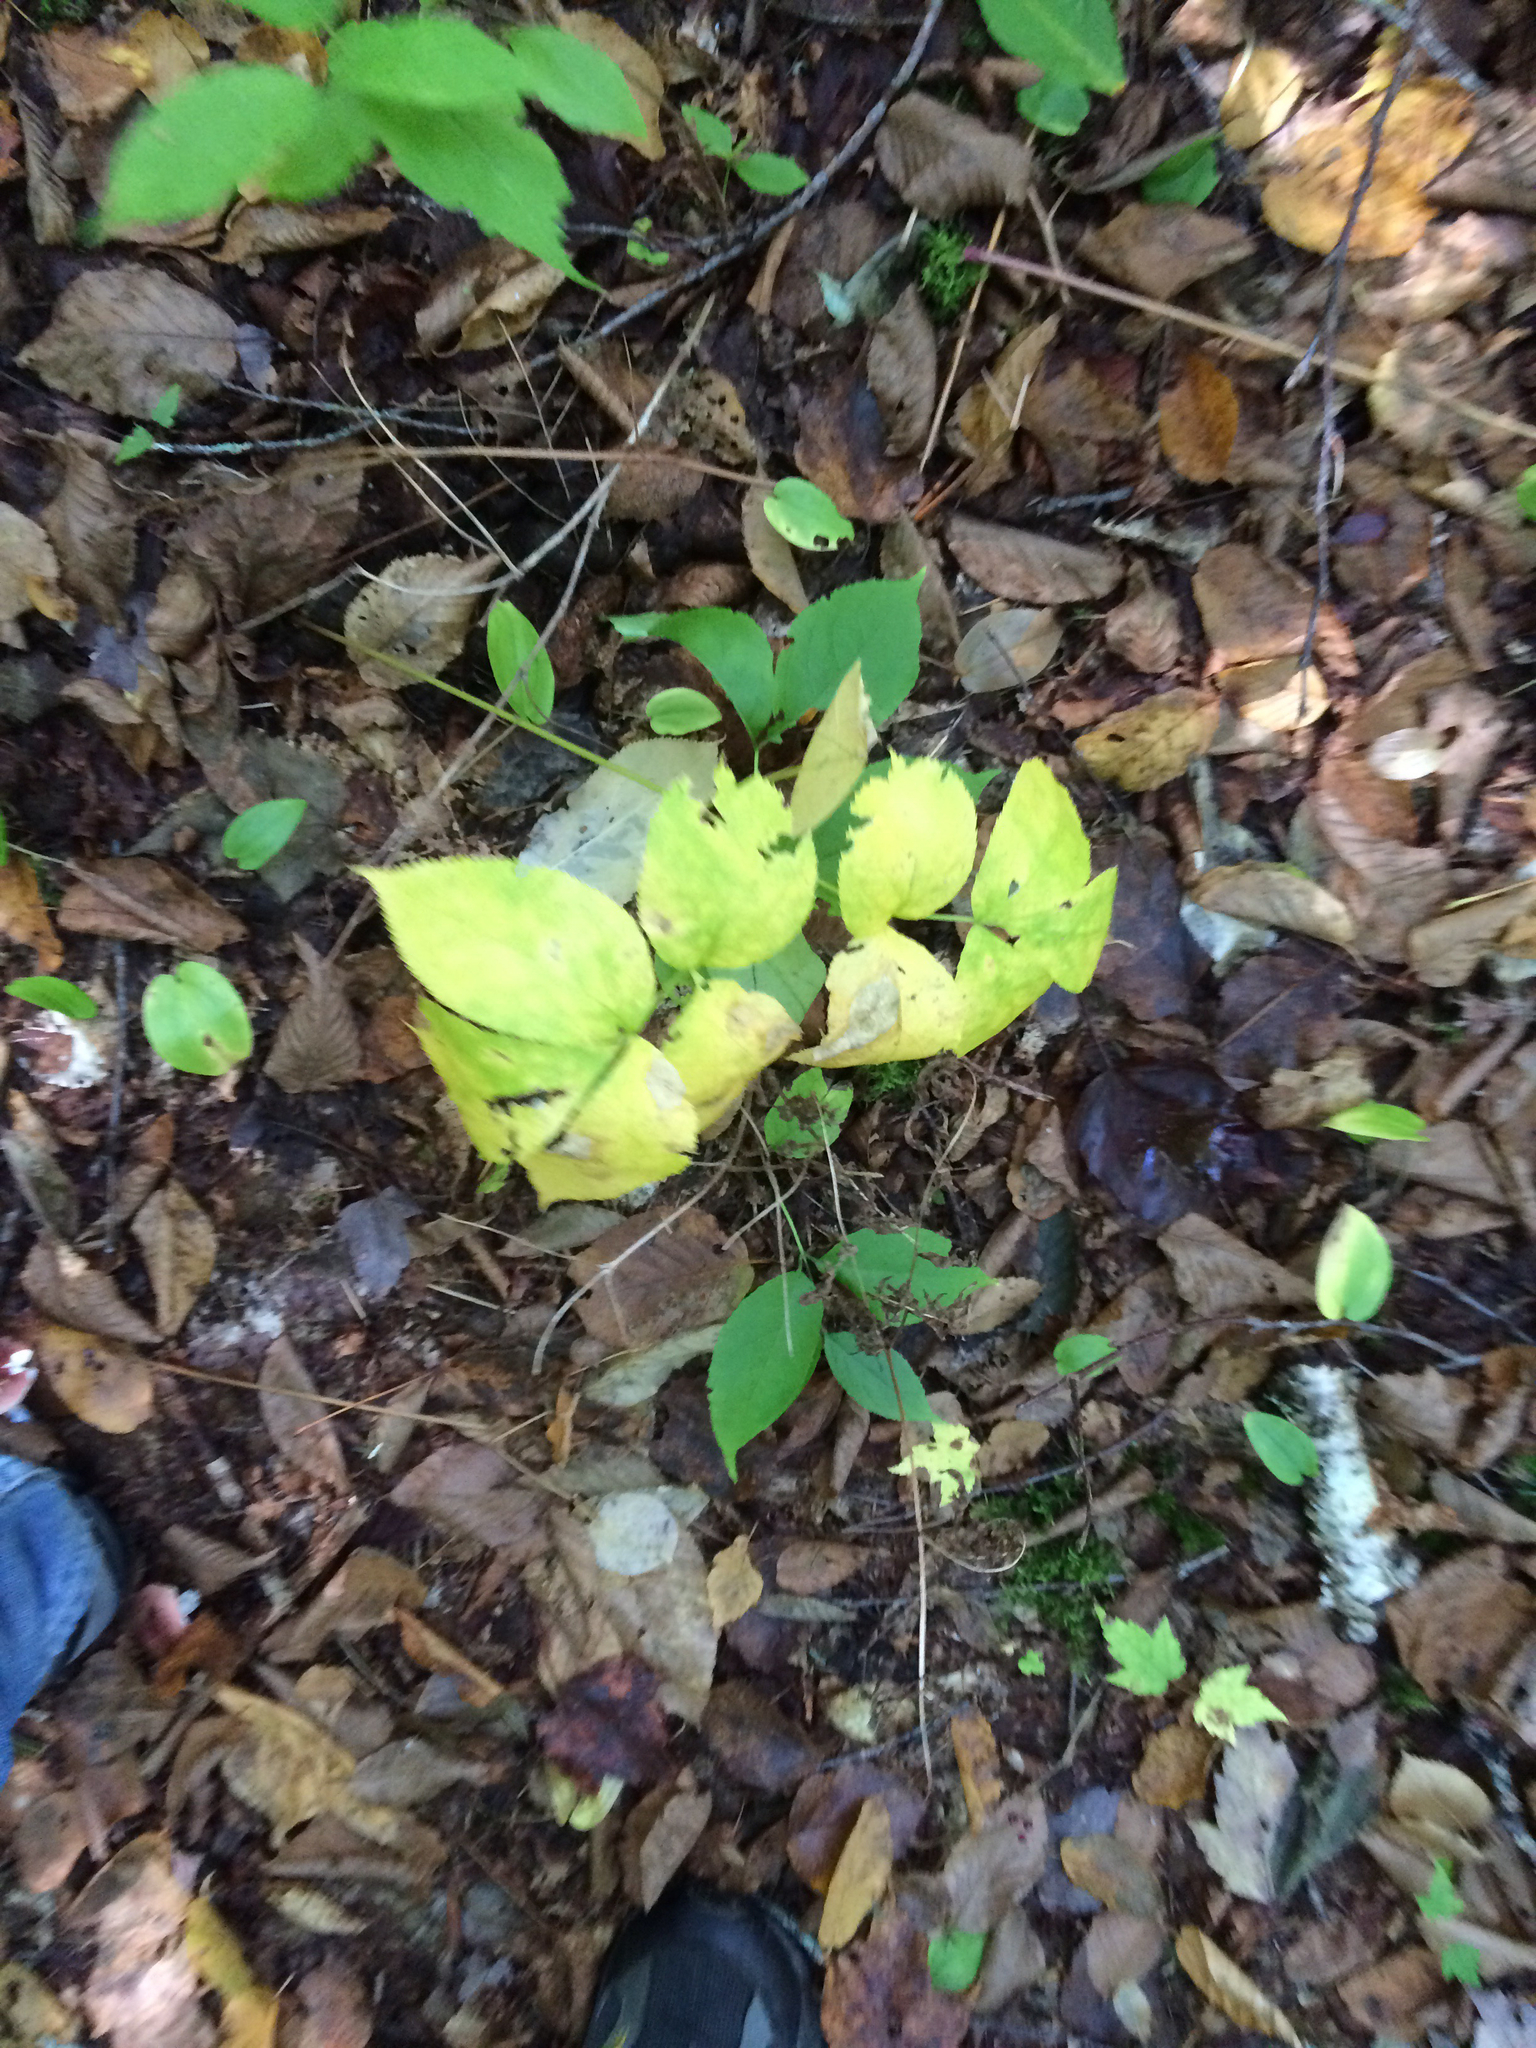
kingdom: Plantae
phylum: Tracheophyta
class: Magnoliopsida
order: Apiales
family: Araliaceae
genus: Aralia
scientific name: Aralia nudicaulis
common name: Wild sarsaparilla
